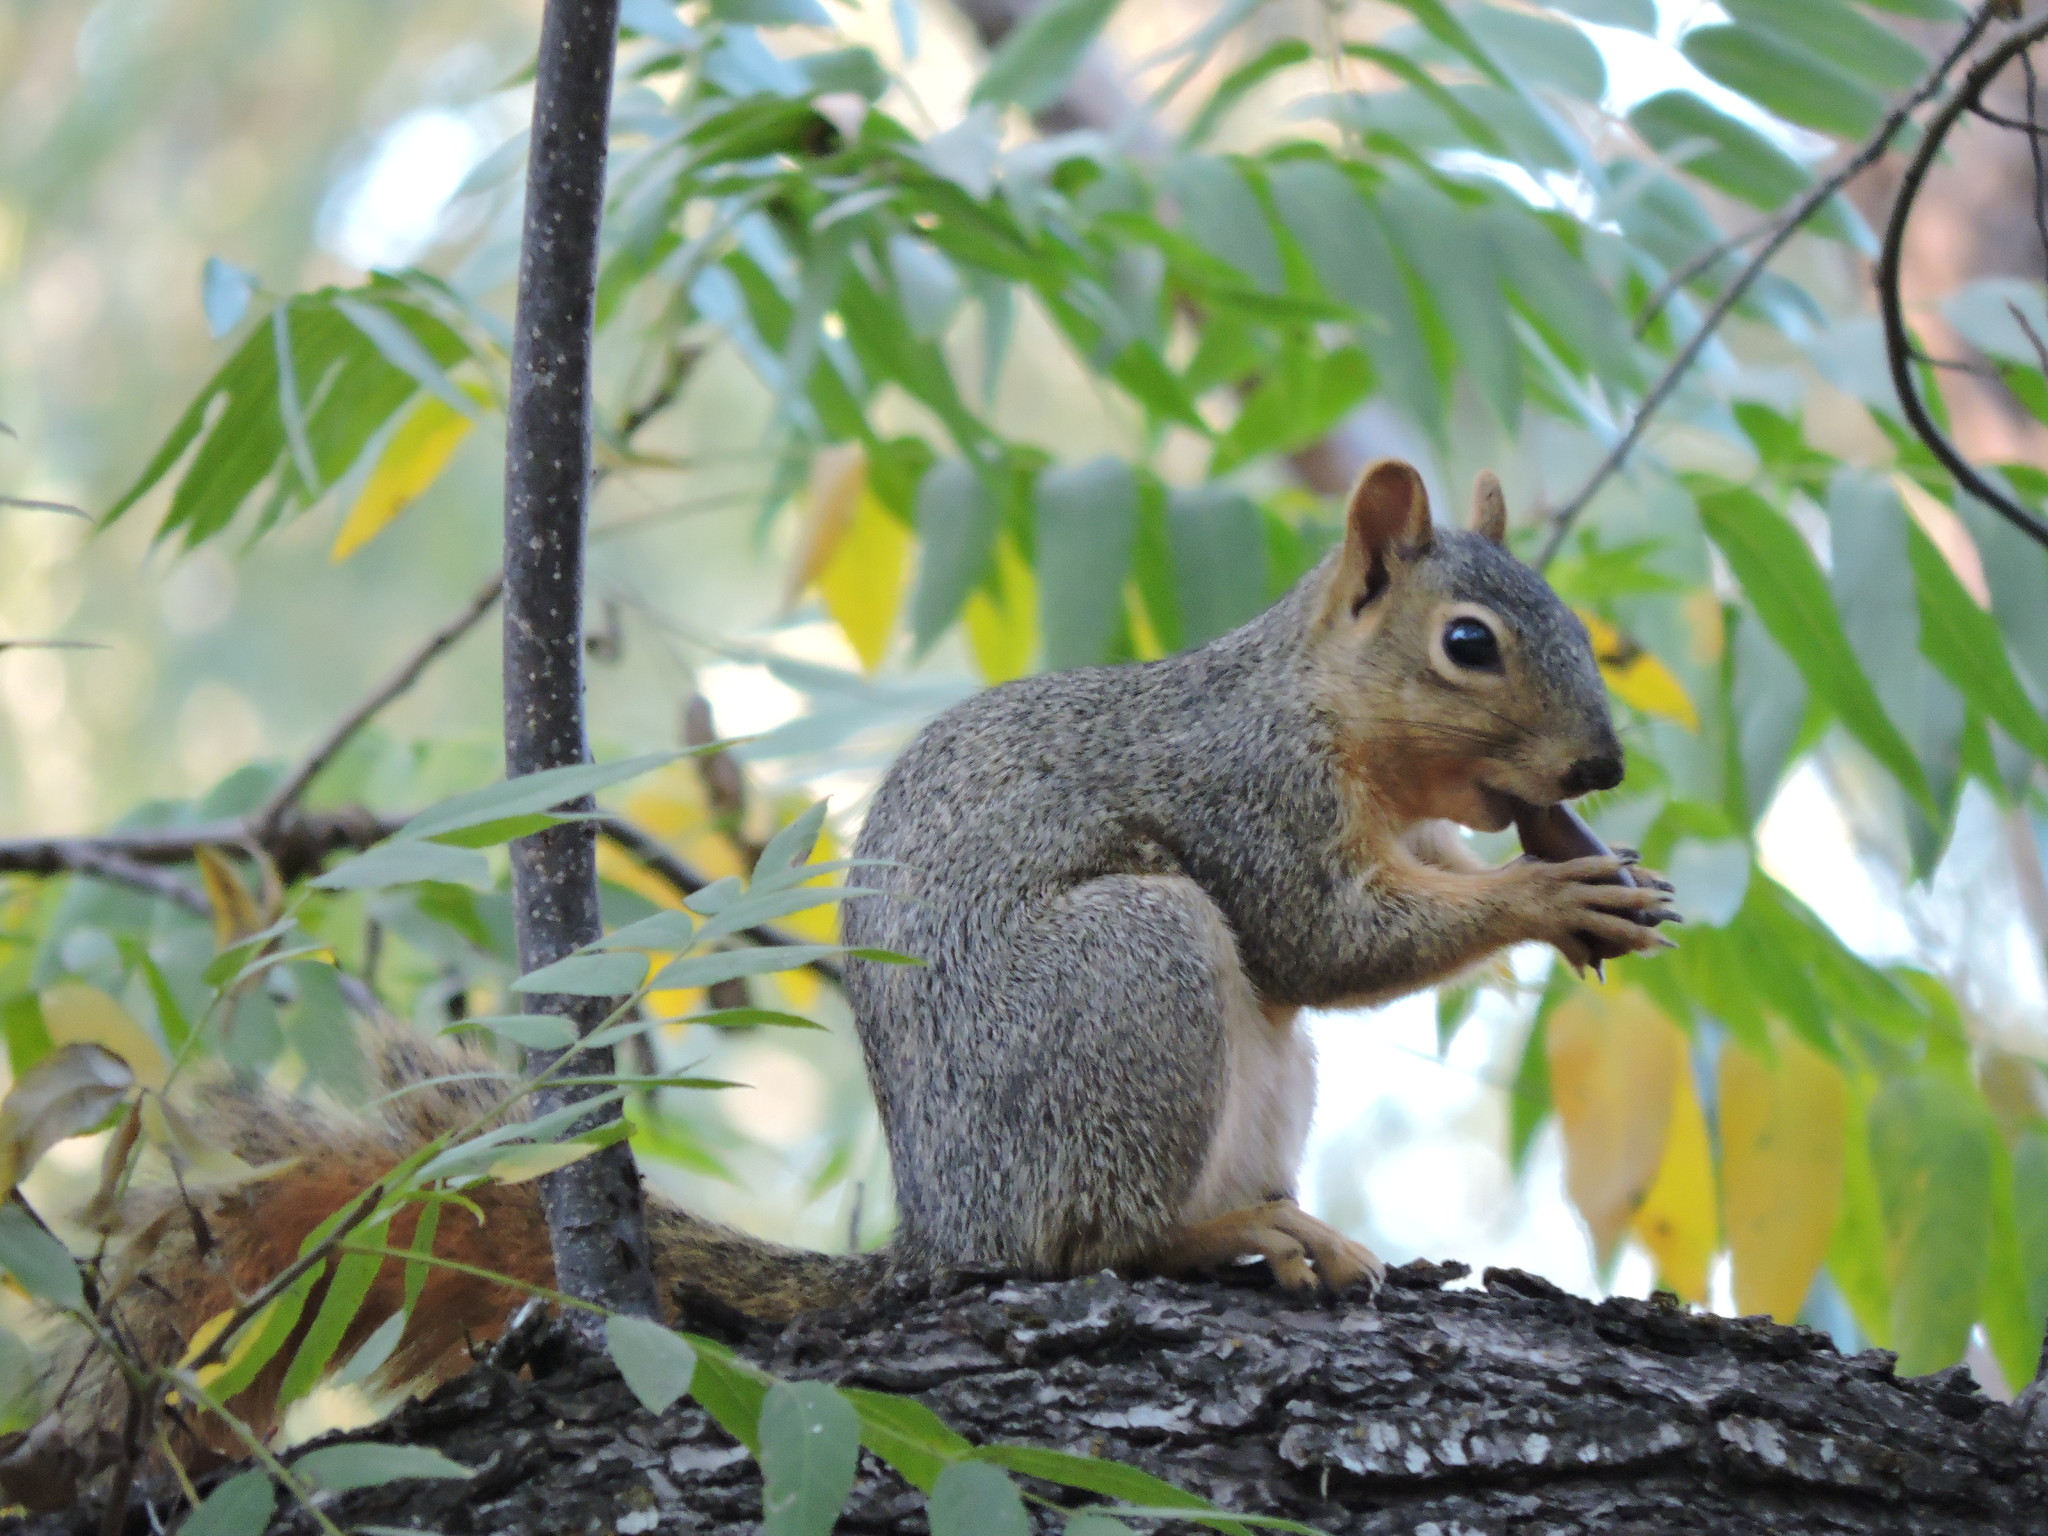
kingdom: Animalia
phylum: Chordata
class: Mammalia
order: Rodentia
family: Sciuridae
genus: Sciurus
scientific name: Sciurus niger
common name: Fox squirrel
